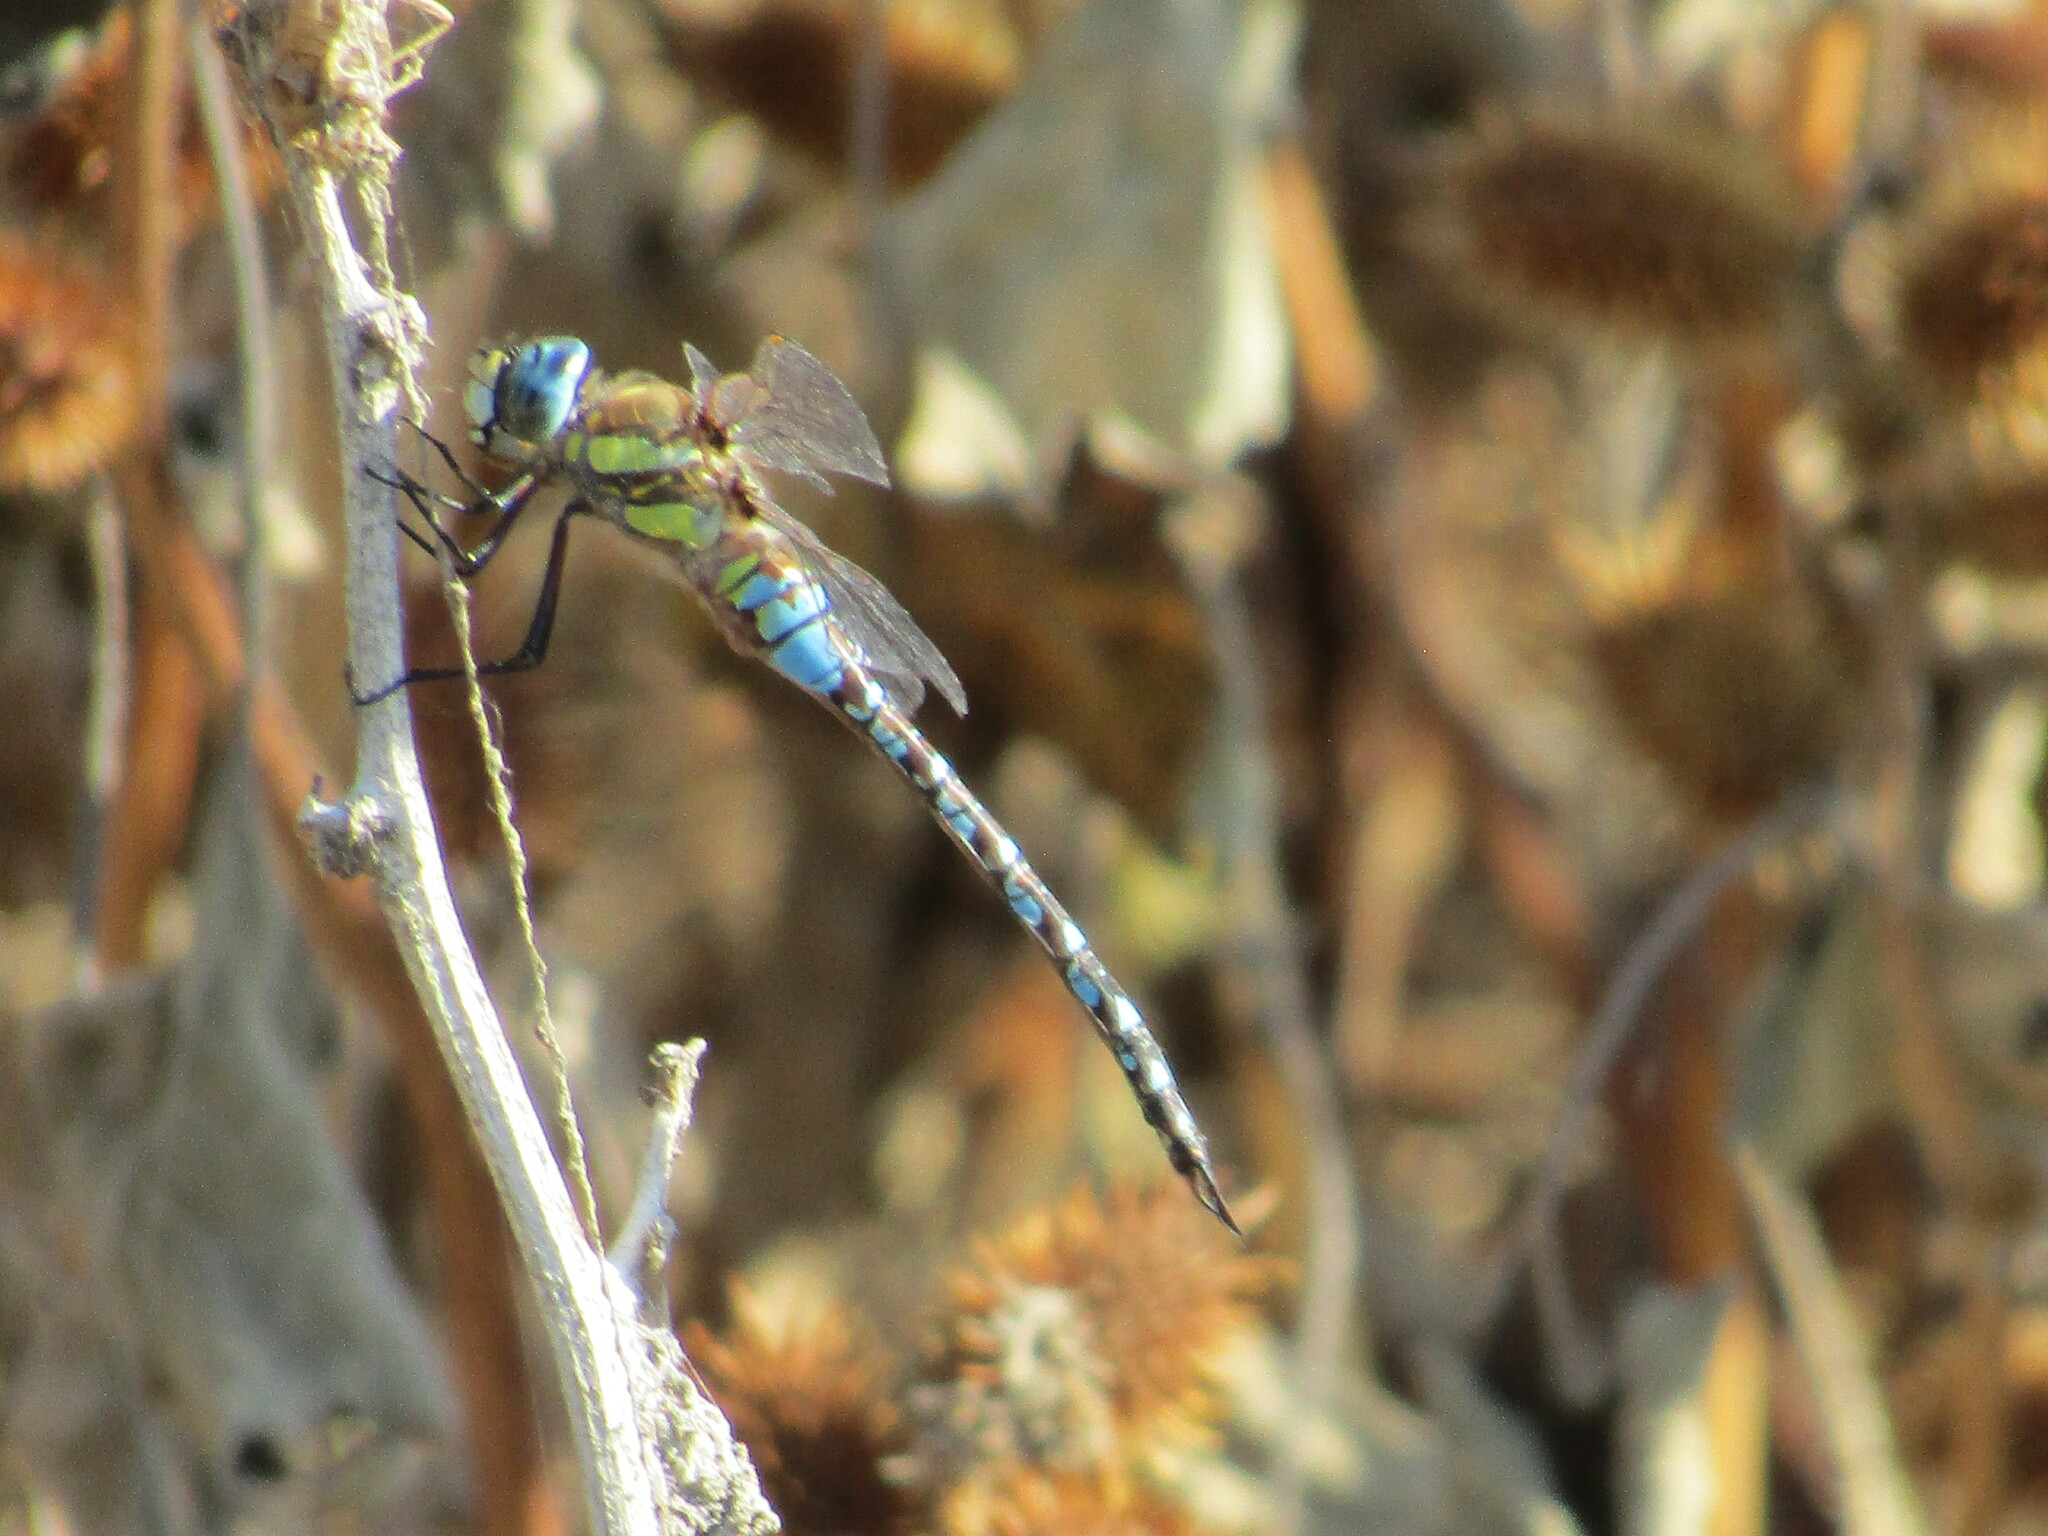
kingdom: Animalia
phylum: Arthropoda
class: Insecta
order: Odonata
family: Aeshnidae
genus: Aeshna
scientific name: Aeshna mixta
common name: Migrant hawker
